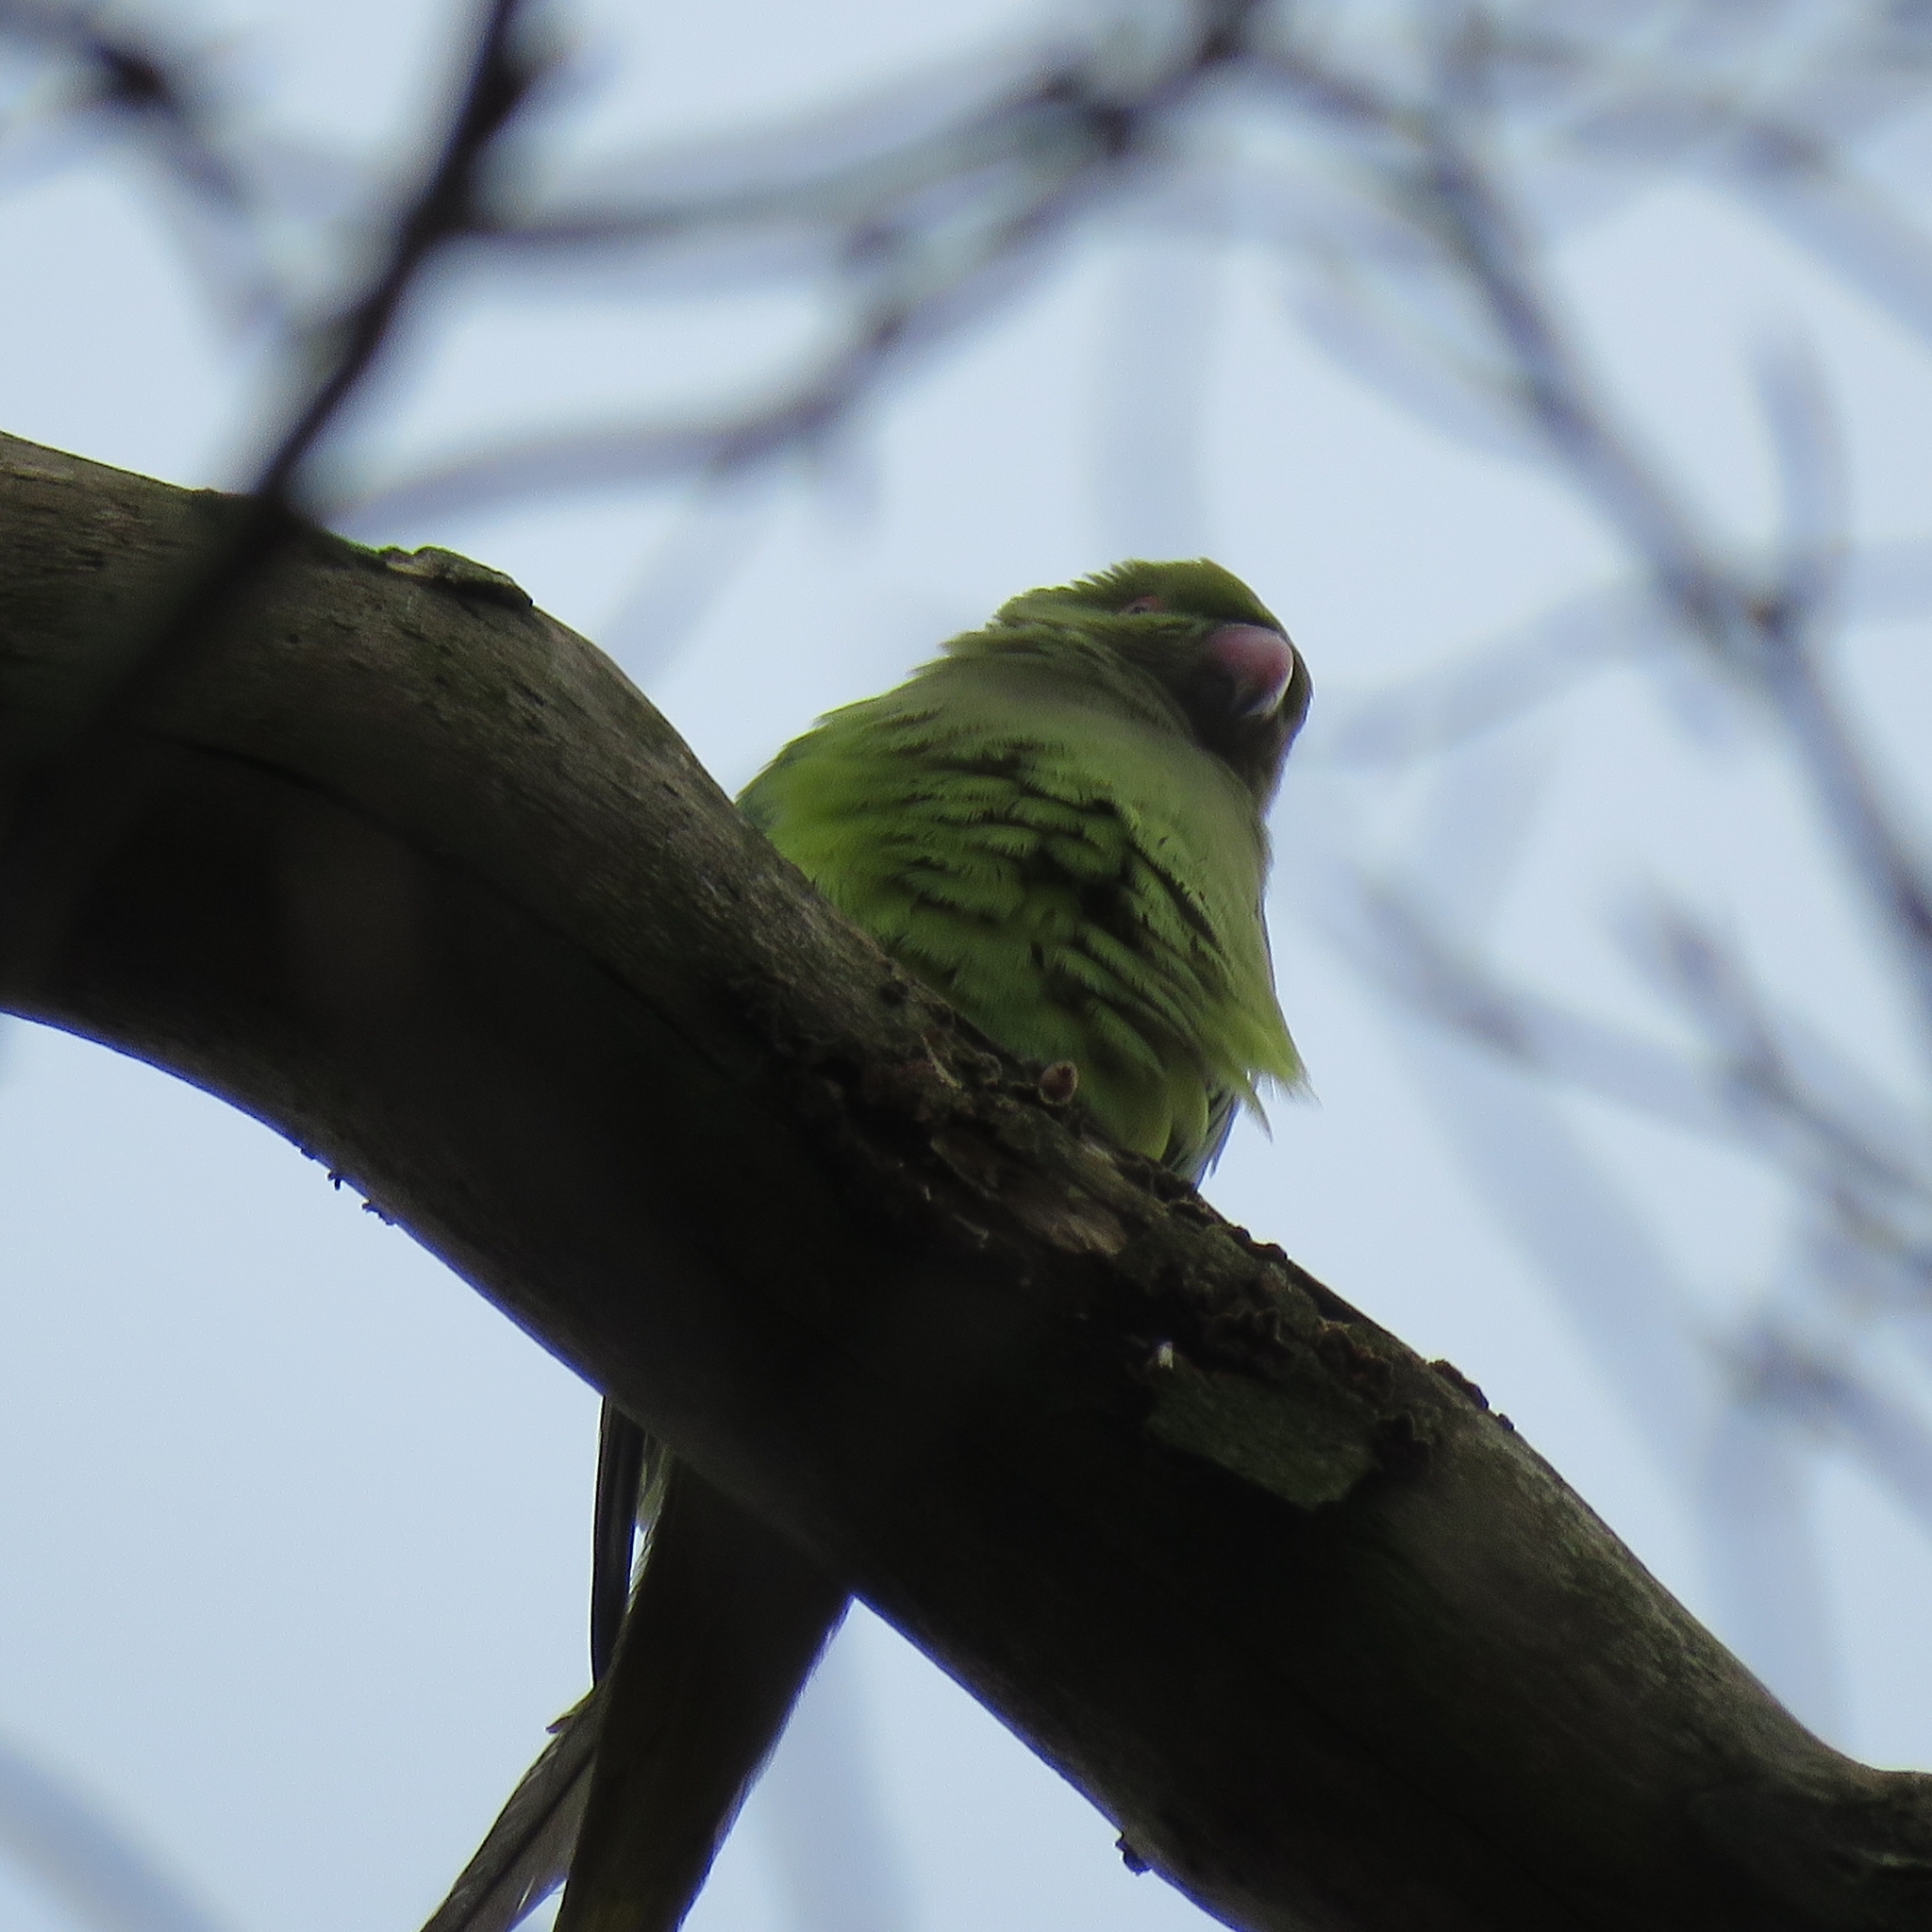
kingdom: Animalia
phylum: Chordata
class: Aves
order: Psittaciformes
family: Psittacidae
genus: Psittacula
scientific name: Psittacula krameri
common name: Rose-ringed parakeet
